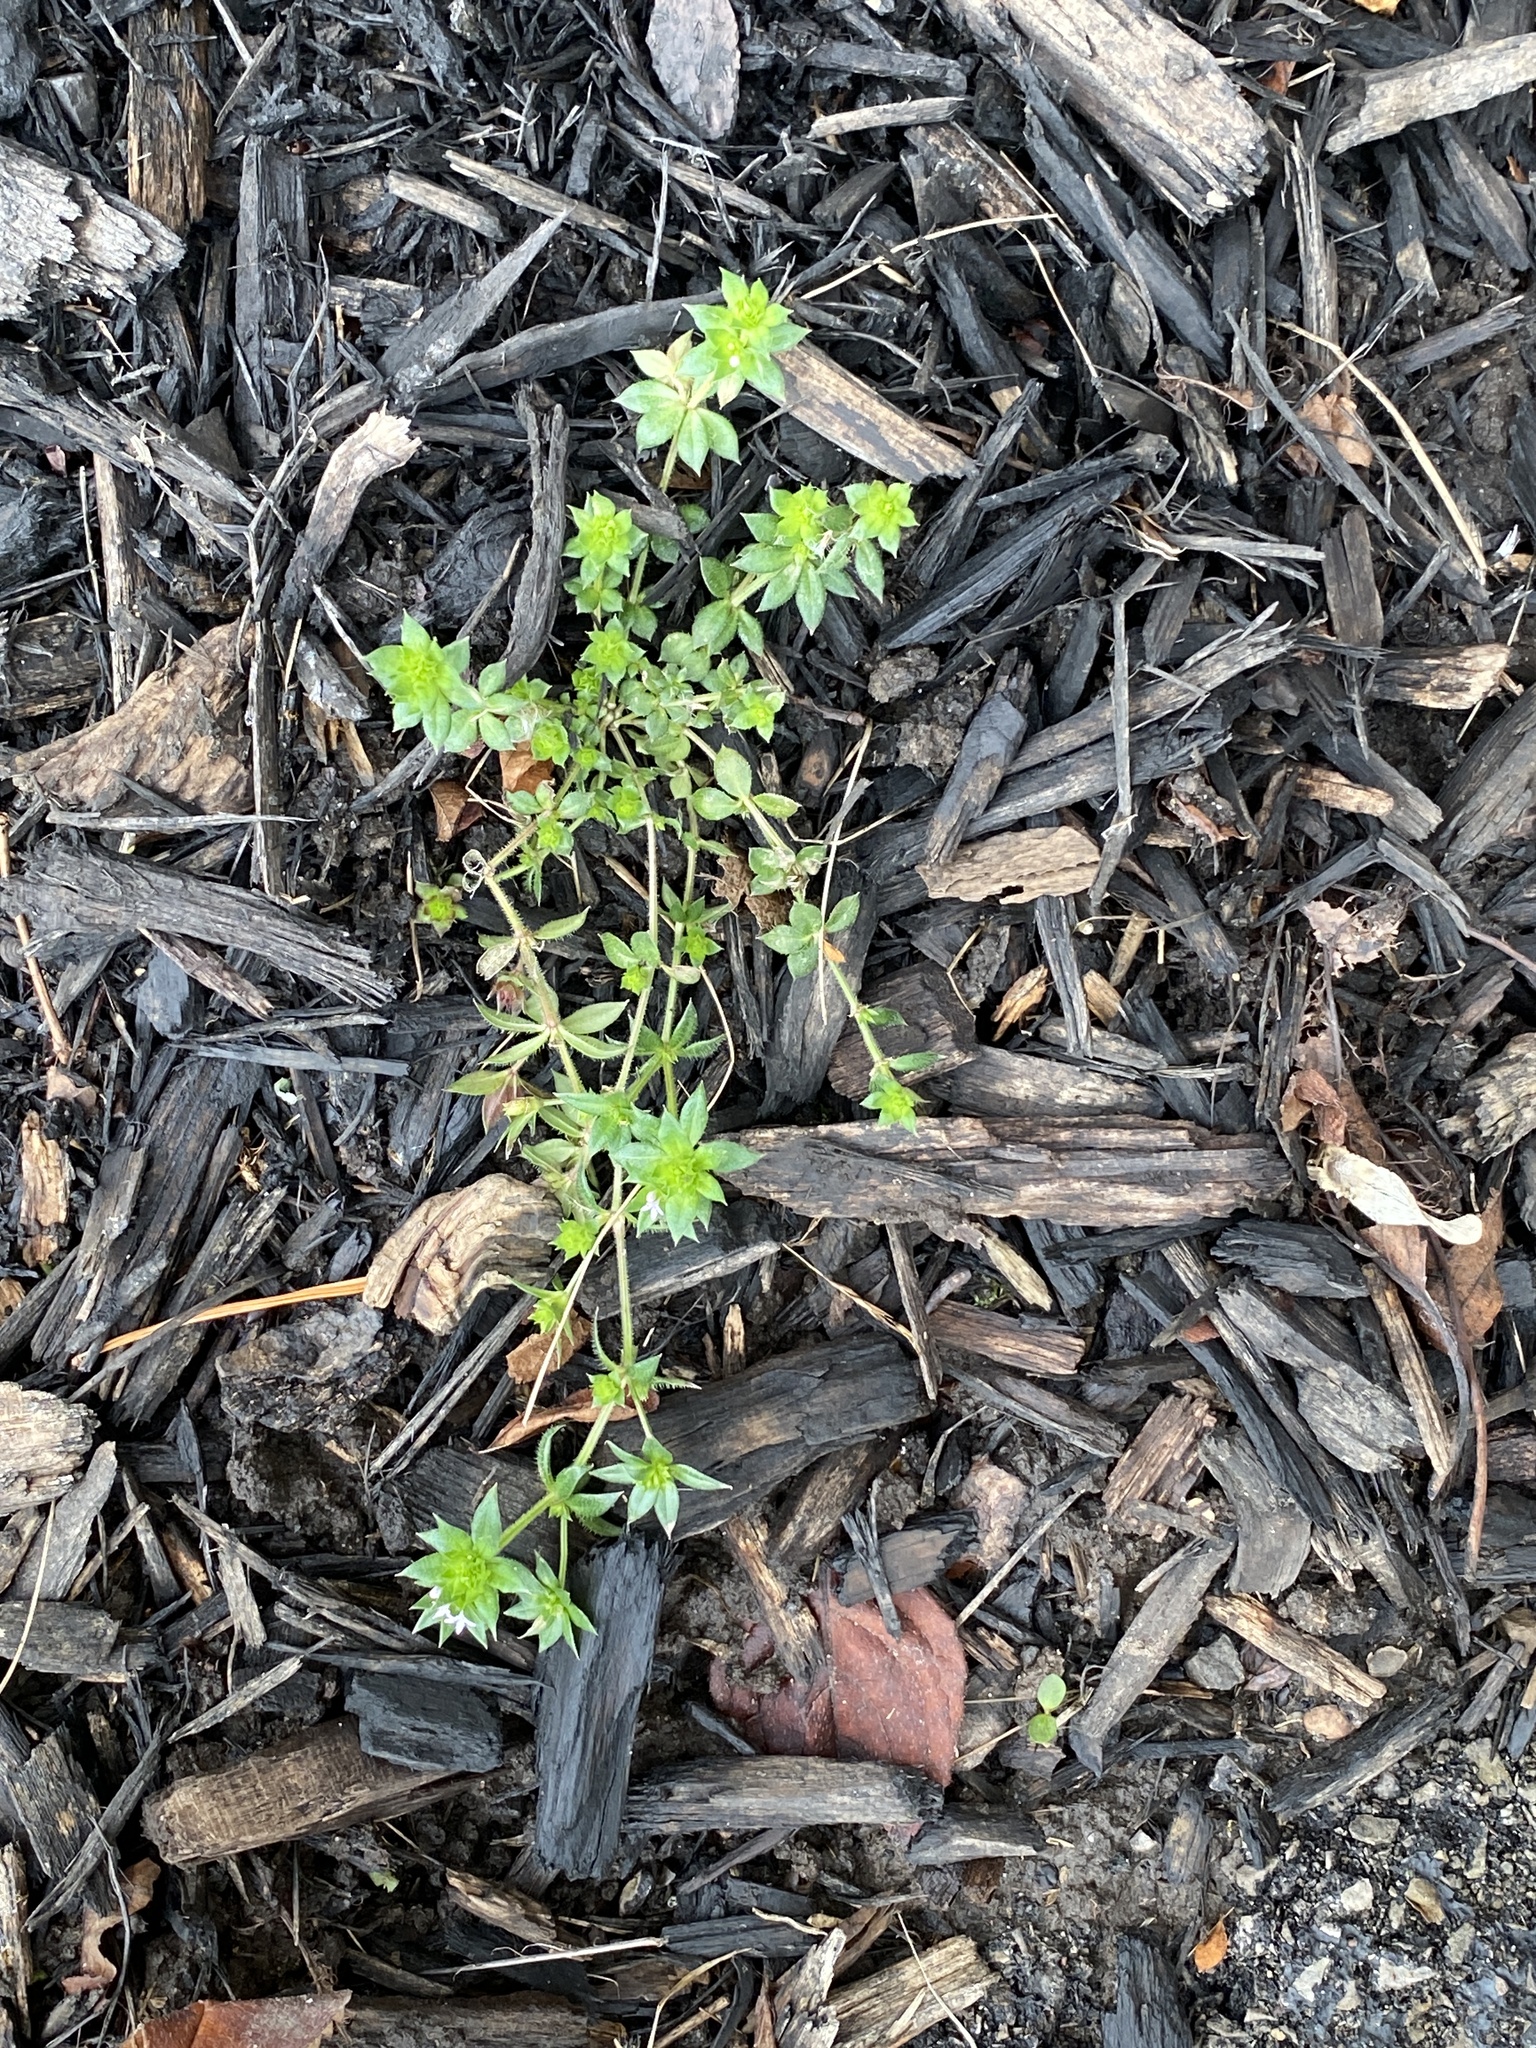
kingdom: Plantae
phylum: Tracheophyta
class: Magnoliopsida
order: Gentianales
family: Rubiaceae
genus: Sherardia
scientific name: Sherardia arvensis
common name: Field madder
